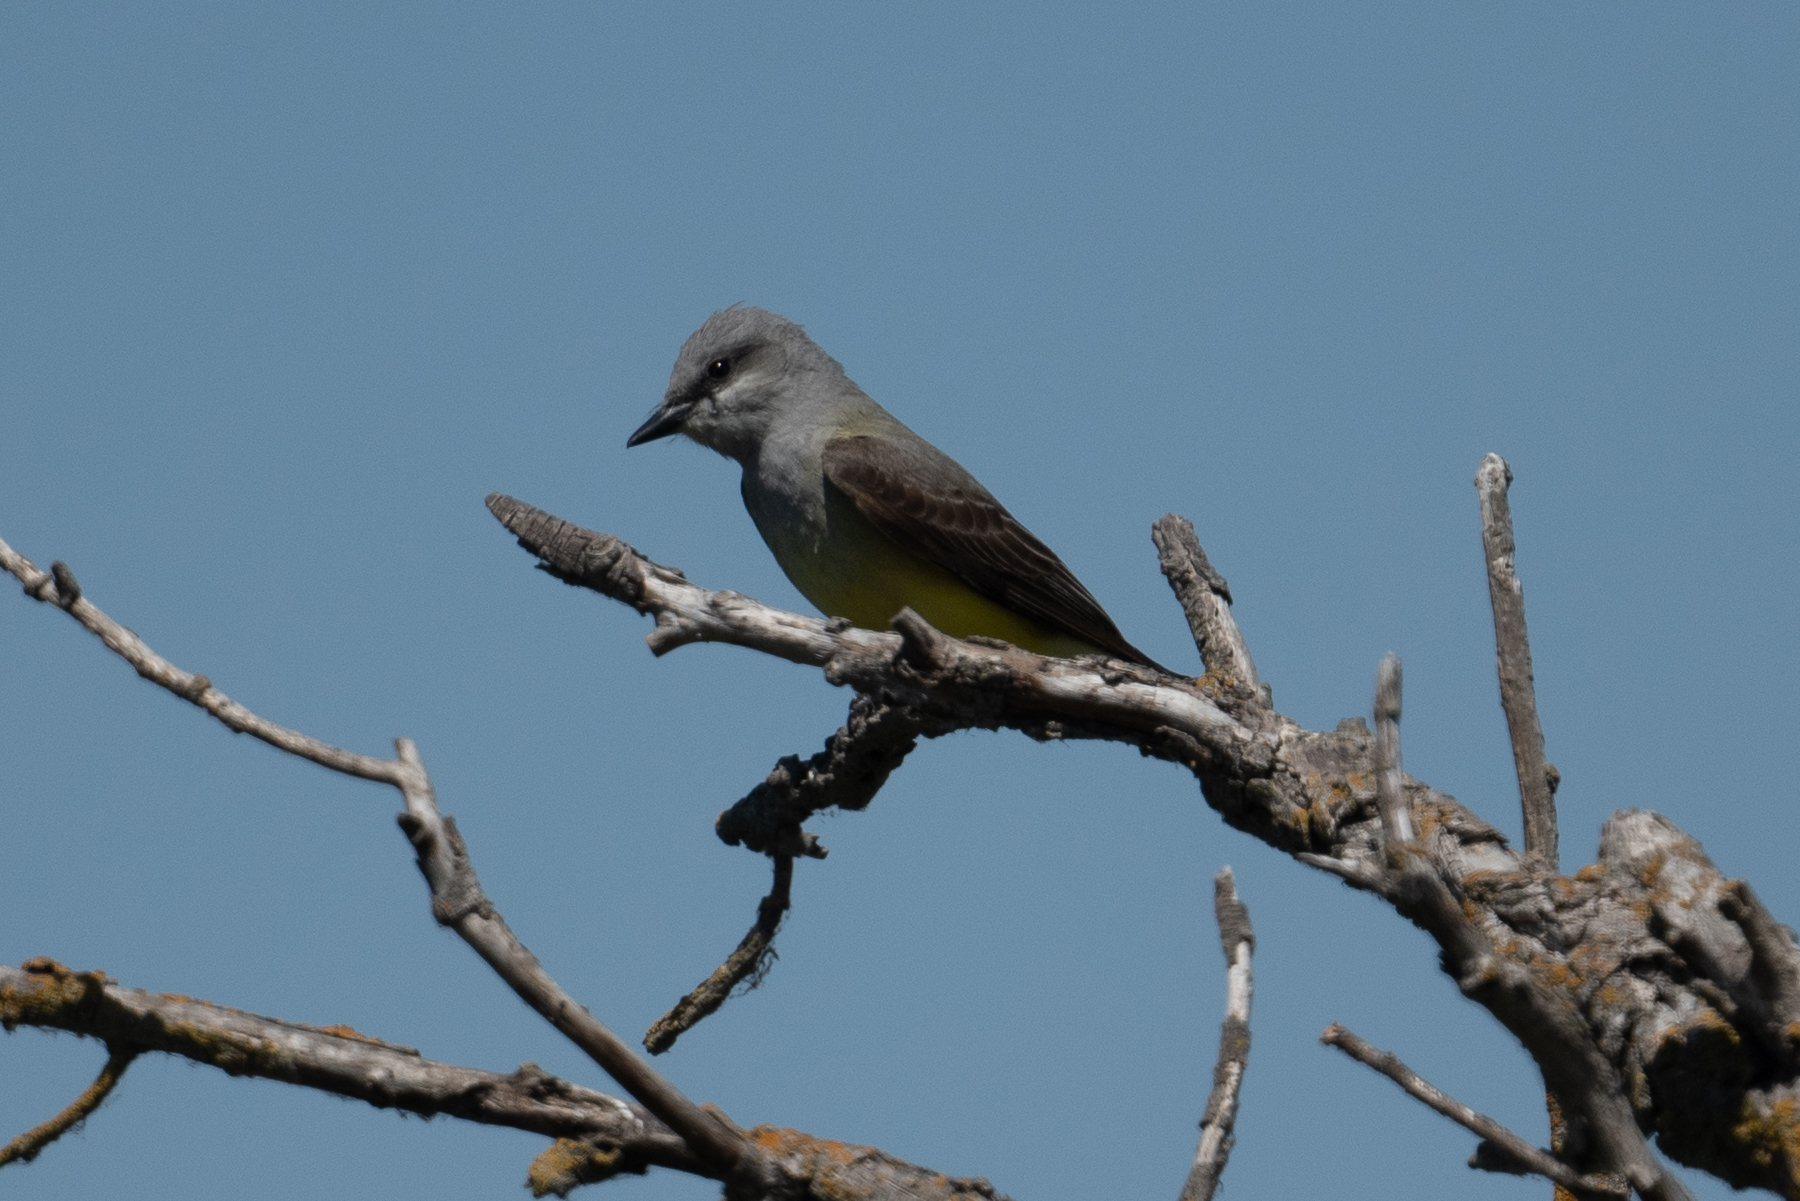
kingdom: Animalia
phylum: Chordata
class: Aves
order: Passeriformes
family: Tyrannidae
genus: Tyrannus
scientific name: Tyrannus verticalis
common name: Western kingbird
